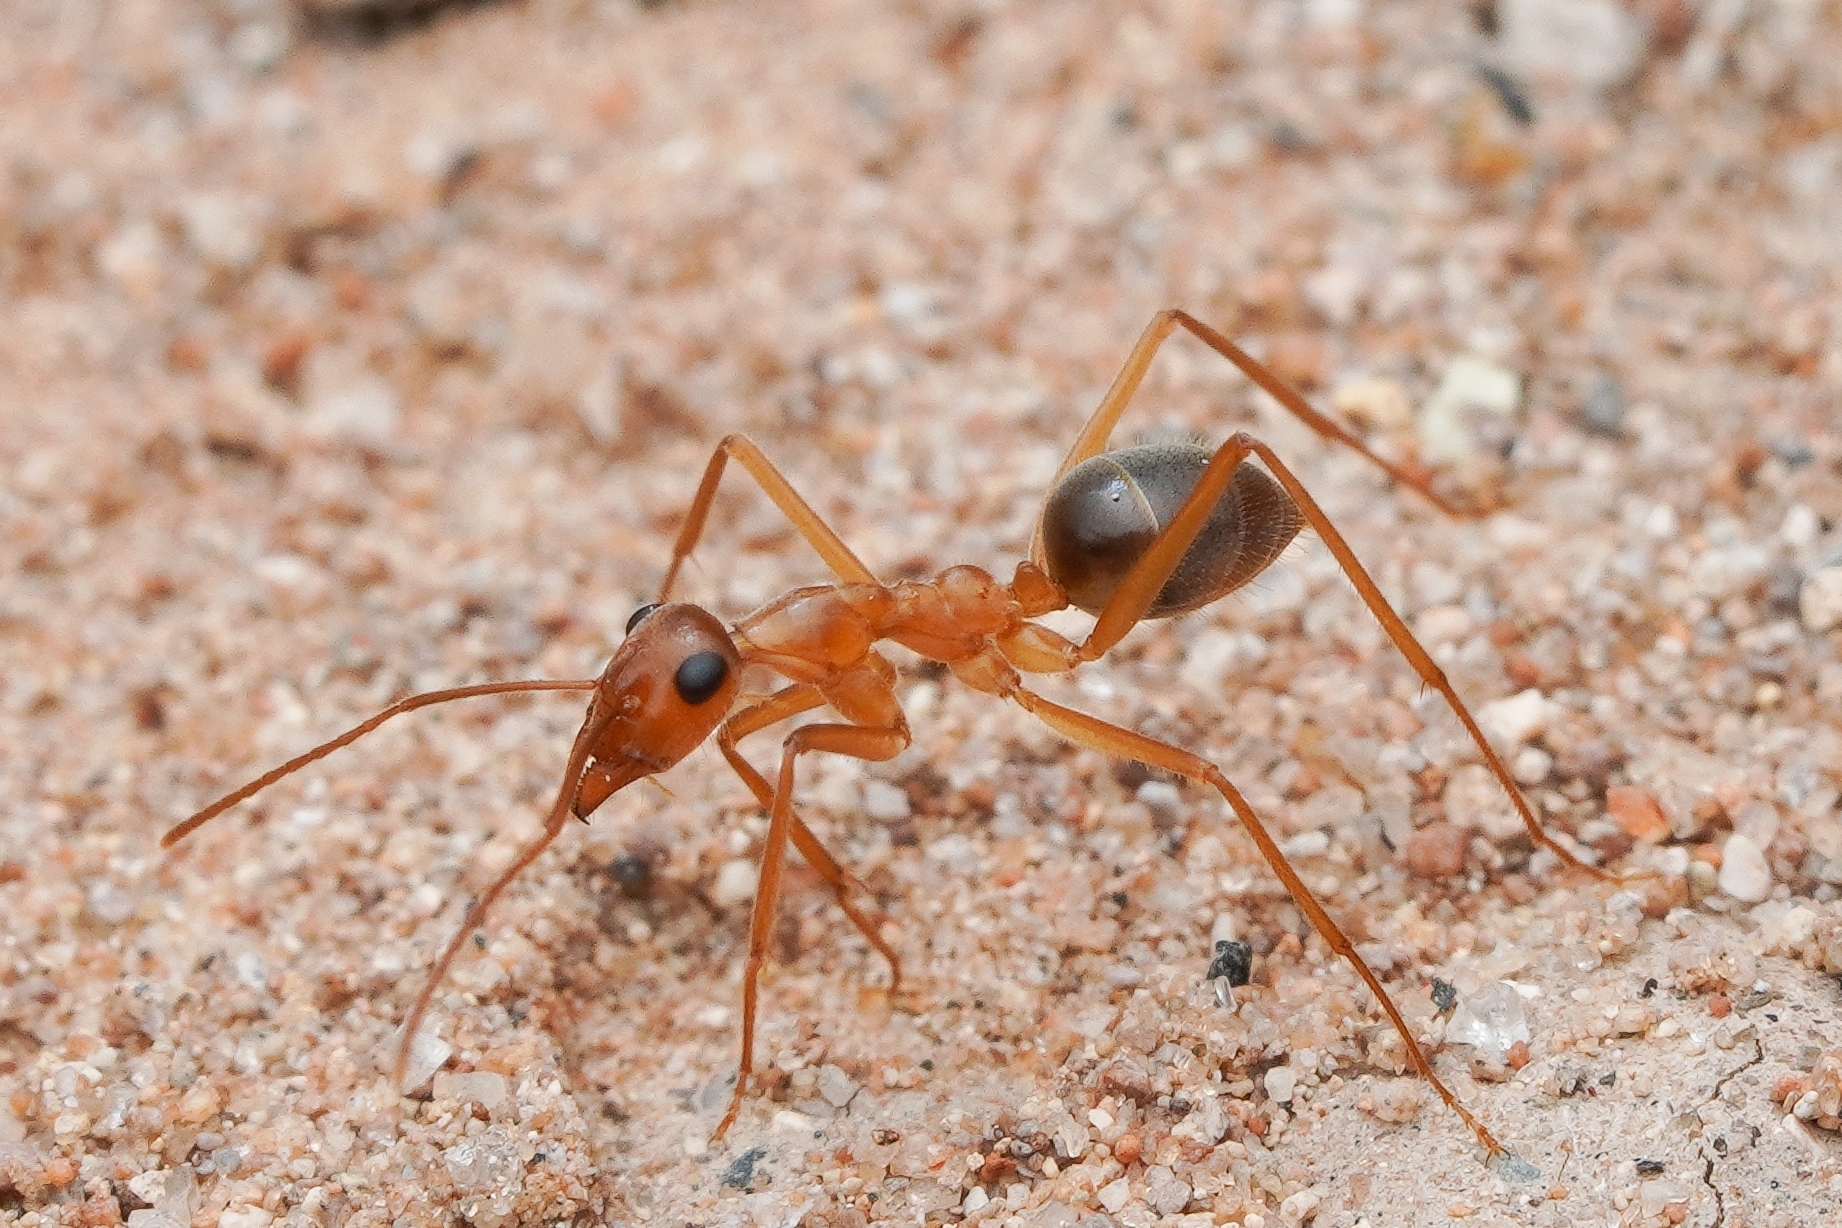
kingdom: Animalia
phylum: Arthropoda
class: Insecta
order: Hymenoptera
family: Formicidae
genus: Myrmecocystus
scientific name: Myrmecocystus mexicanus
